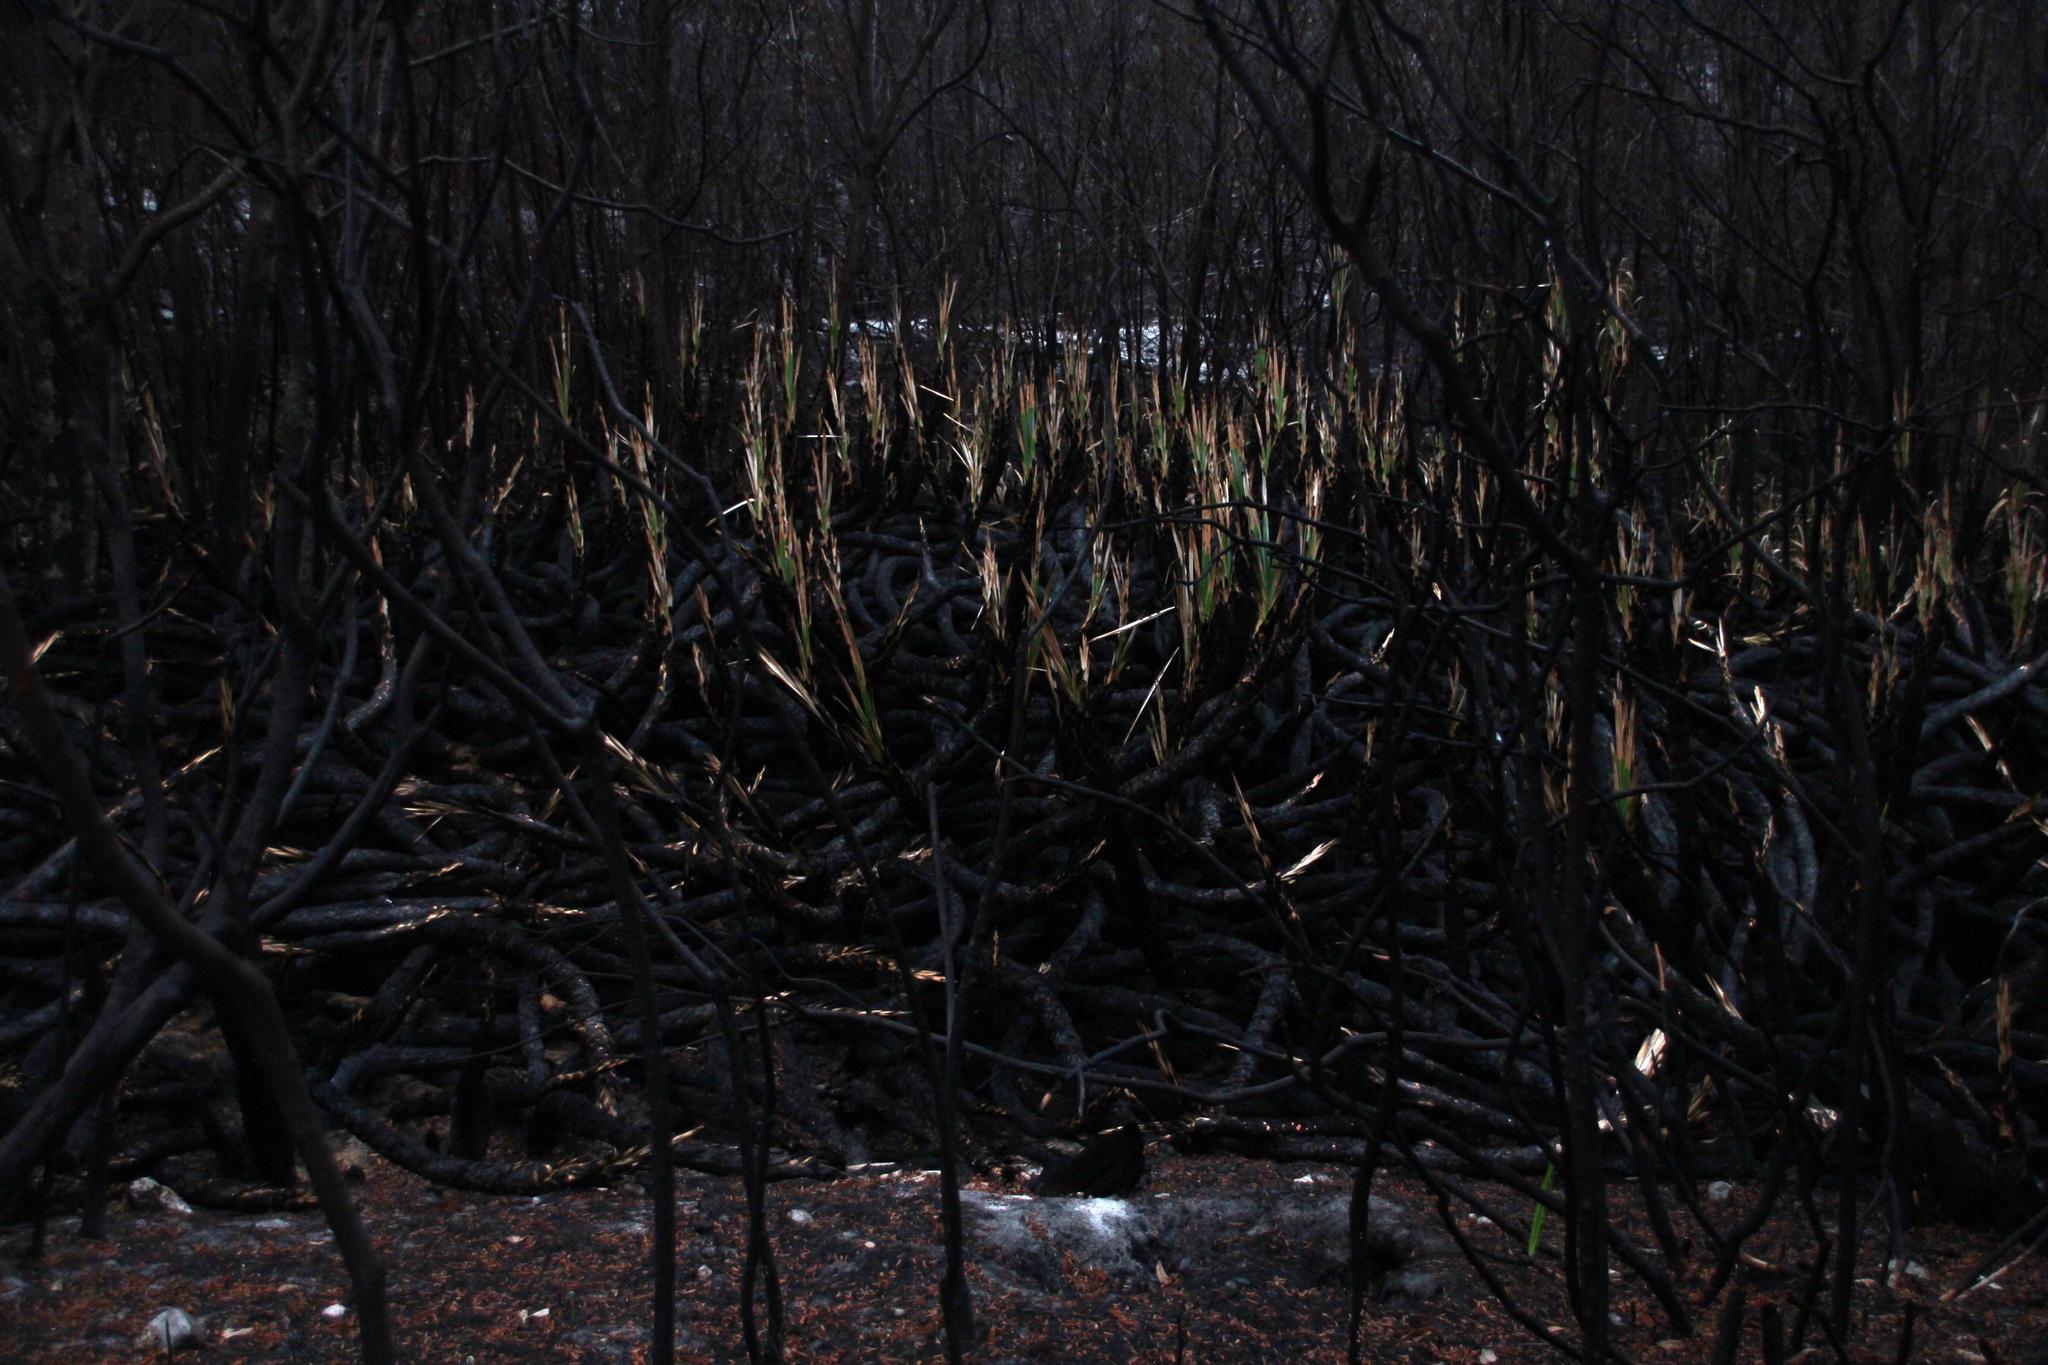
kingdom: Plantae
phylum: Tracheophyta
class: Liliopsida
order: Poales
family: Thurniaceae
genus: Prionium
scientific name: Prionium serratum
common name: Palmiet
